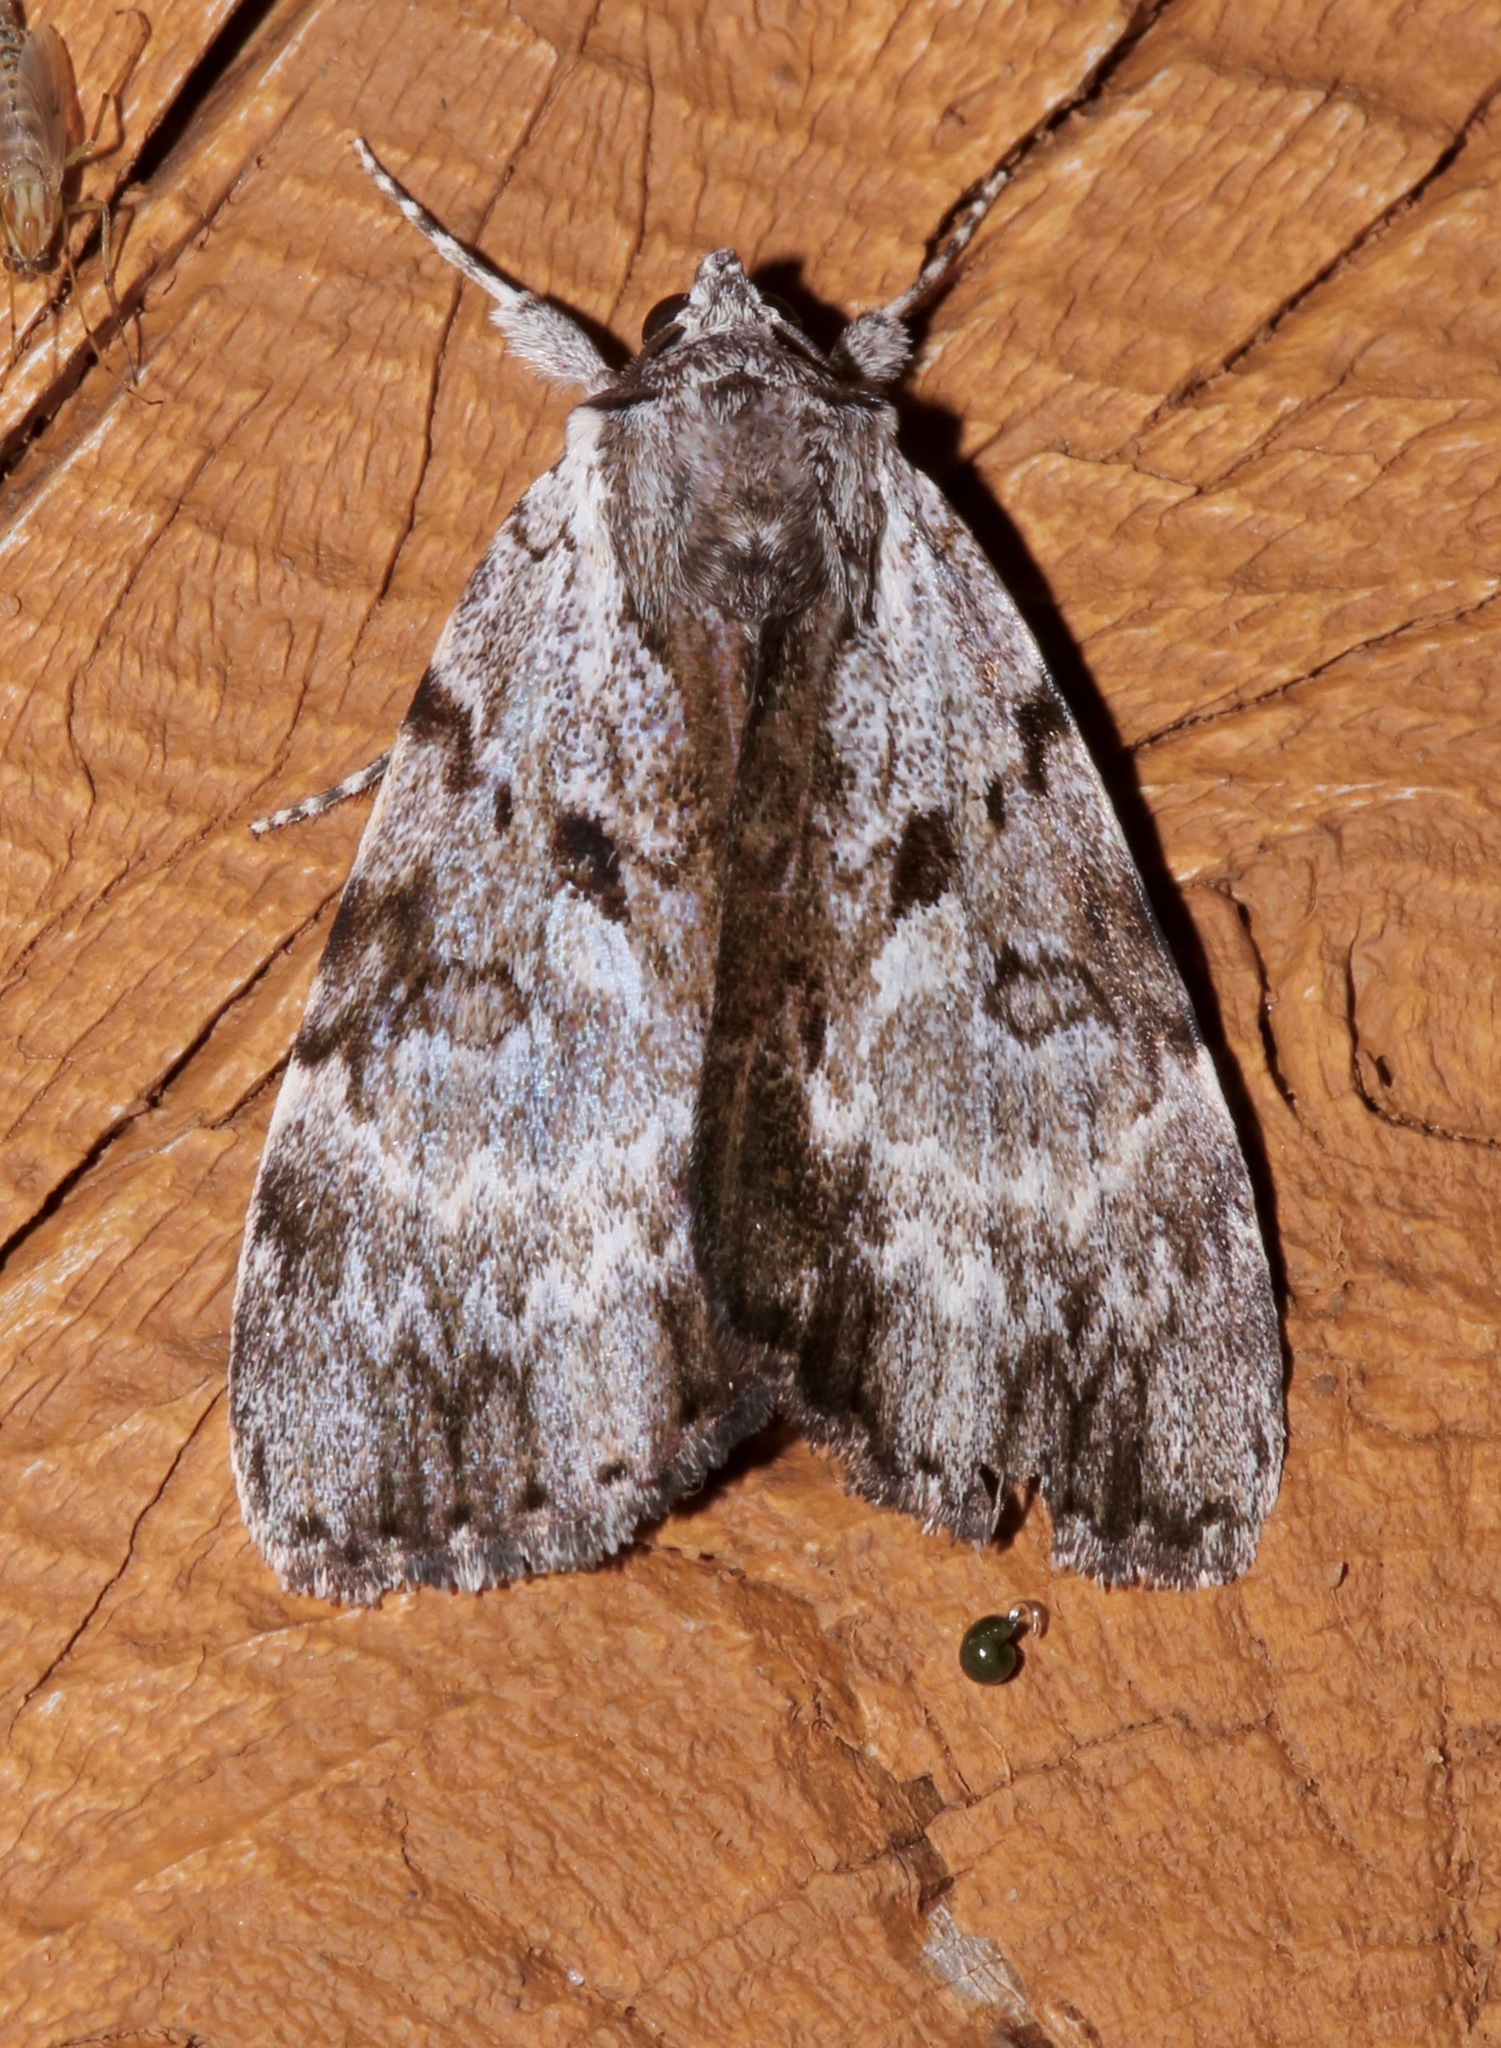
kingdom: Animalia
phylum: Arthropoda
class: Insecta
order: Lepidoptera
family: Erebidae
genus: Catocala
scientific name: Catocala andromedae
